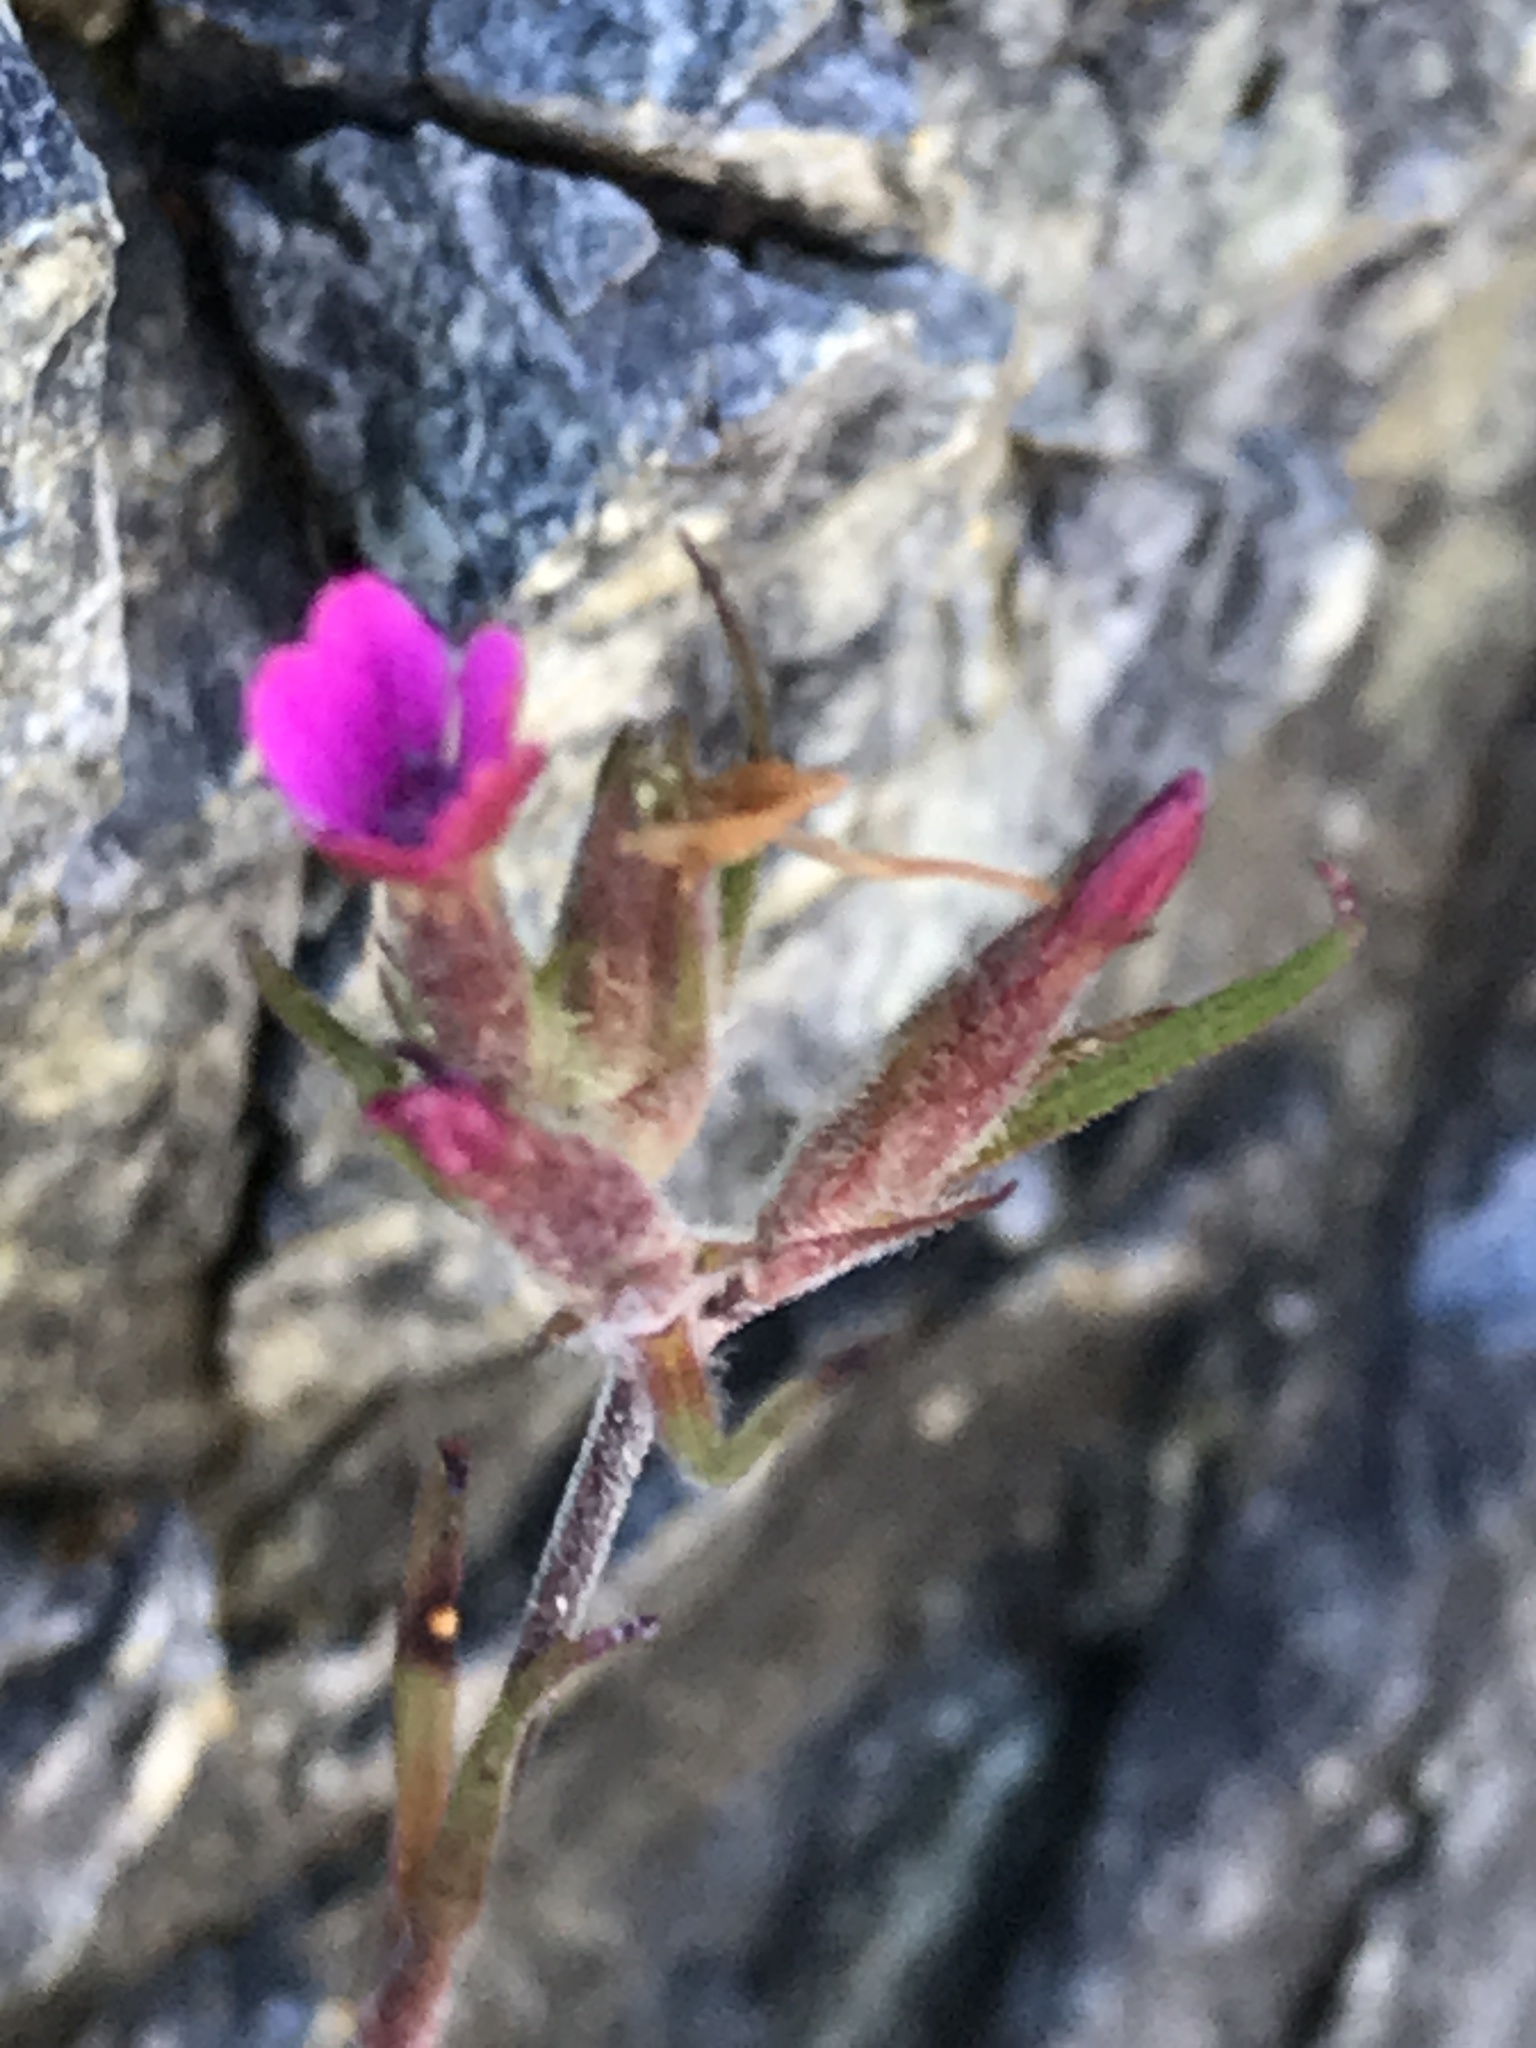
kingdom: Plantae
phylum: Tracheophyta
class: Magnoliopsida
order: Caryophyllales
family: Caryophyllaceae
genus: Dianthus
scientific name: Dianthus armeria
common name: Deptford pink
